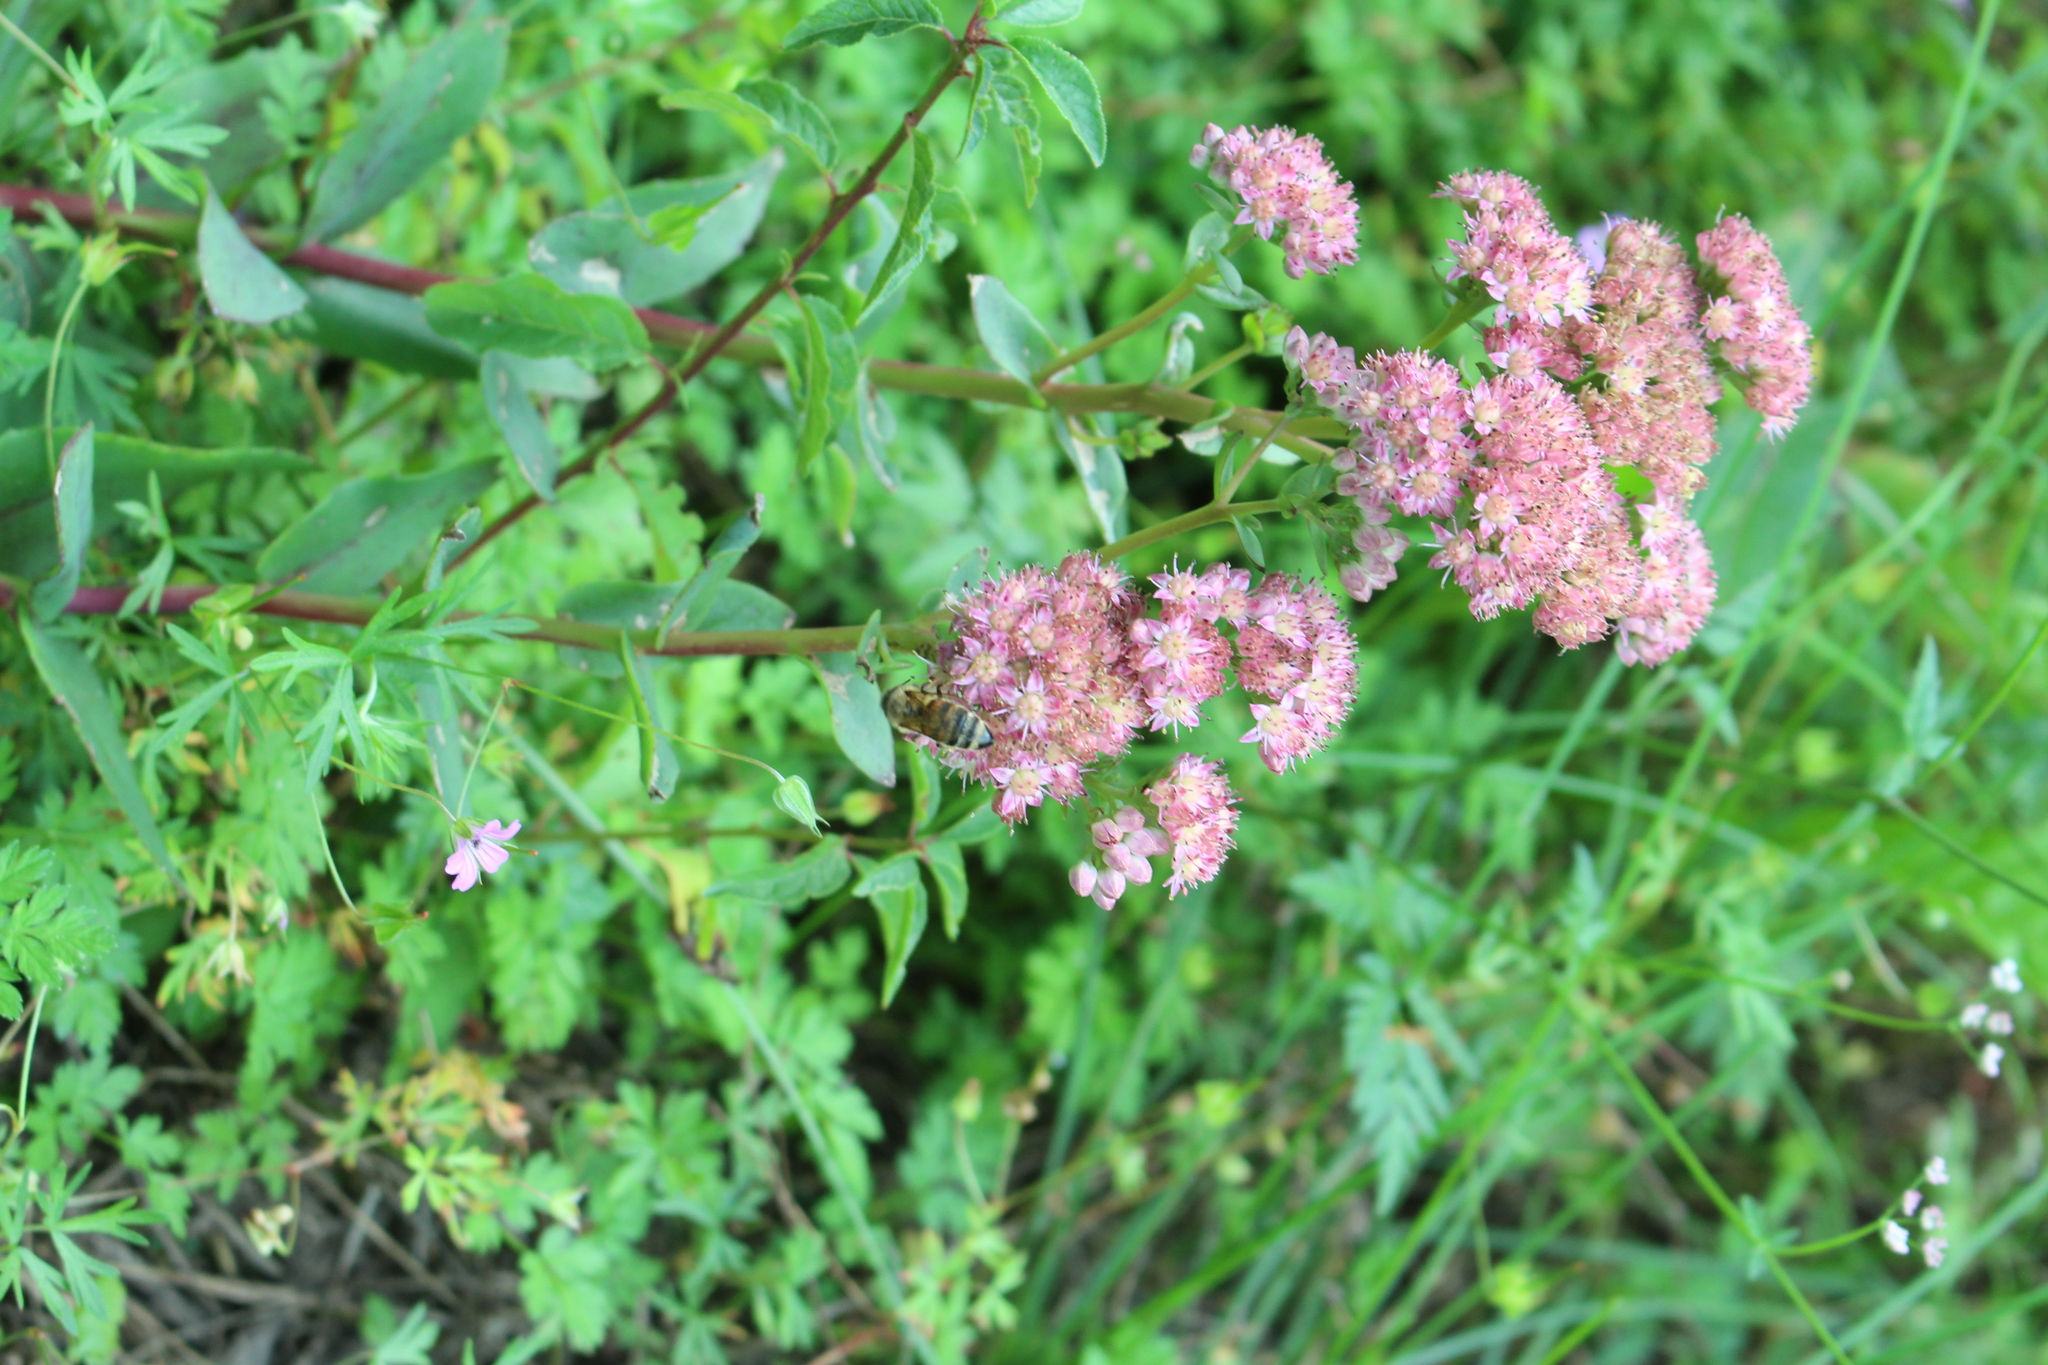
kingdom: Plantae
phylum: Tracheophyta
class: Magnoliopsida
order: Saxifragales
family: Crassulaceae
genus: Hylotelephium
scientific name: Hylotelephium telephium
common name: Live-forever
